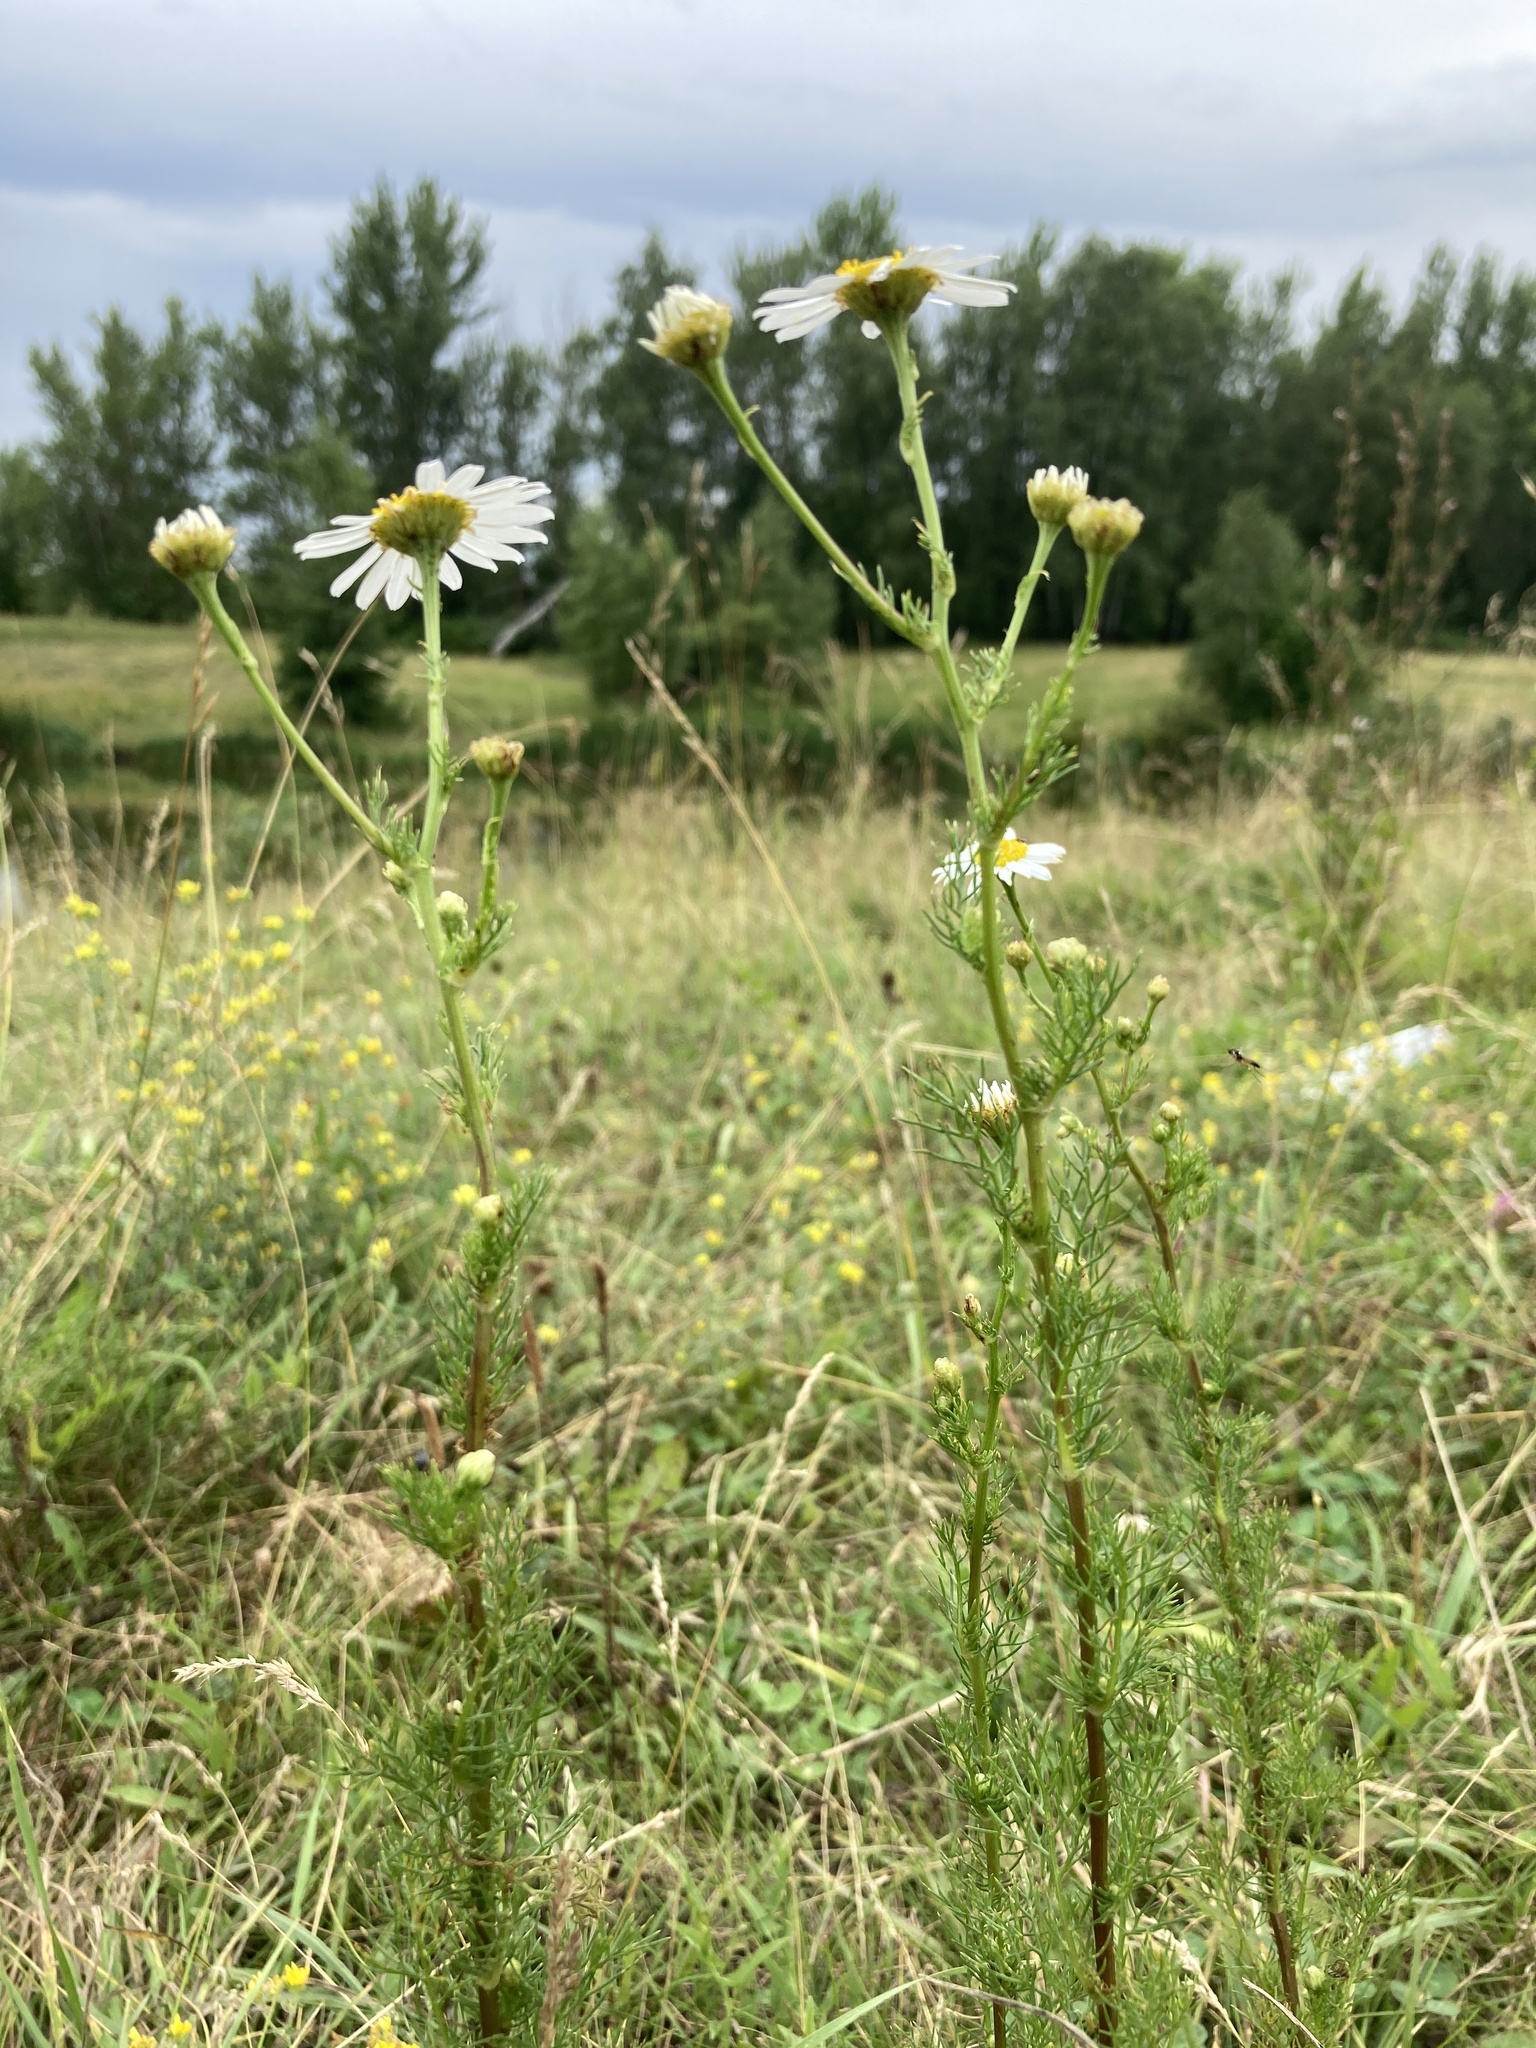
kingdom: Plantae
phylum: Tracheophyta
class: Magnoliopsida
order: Asterales
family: Asteraceae
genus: Tripleurospermum
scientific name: Tripleurospermum inodorum
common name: Scentless mayweed
